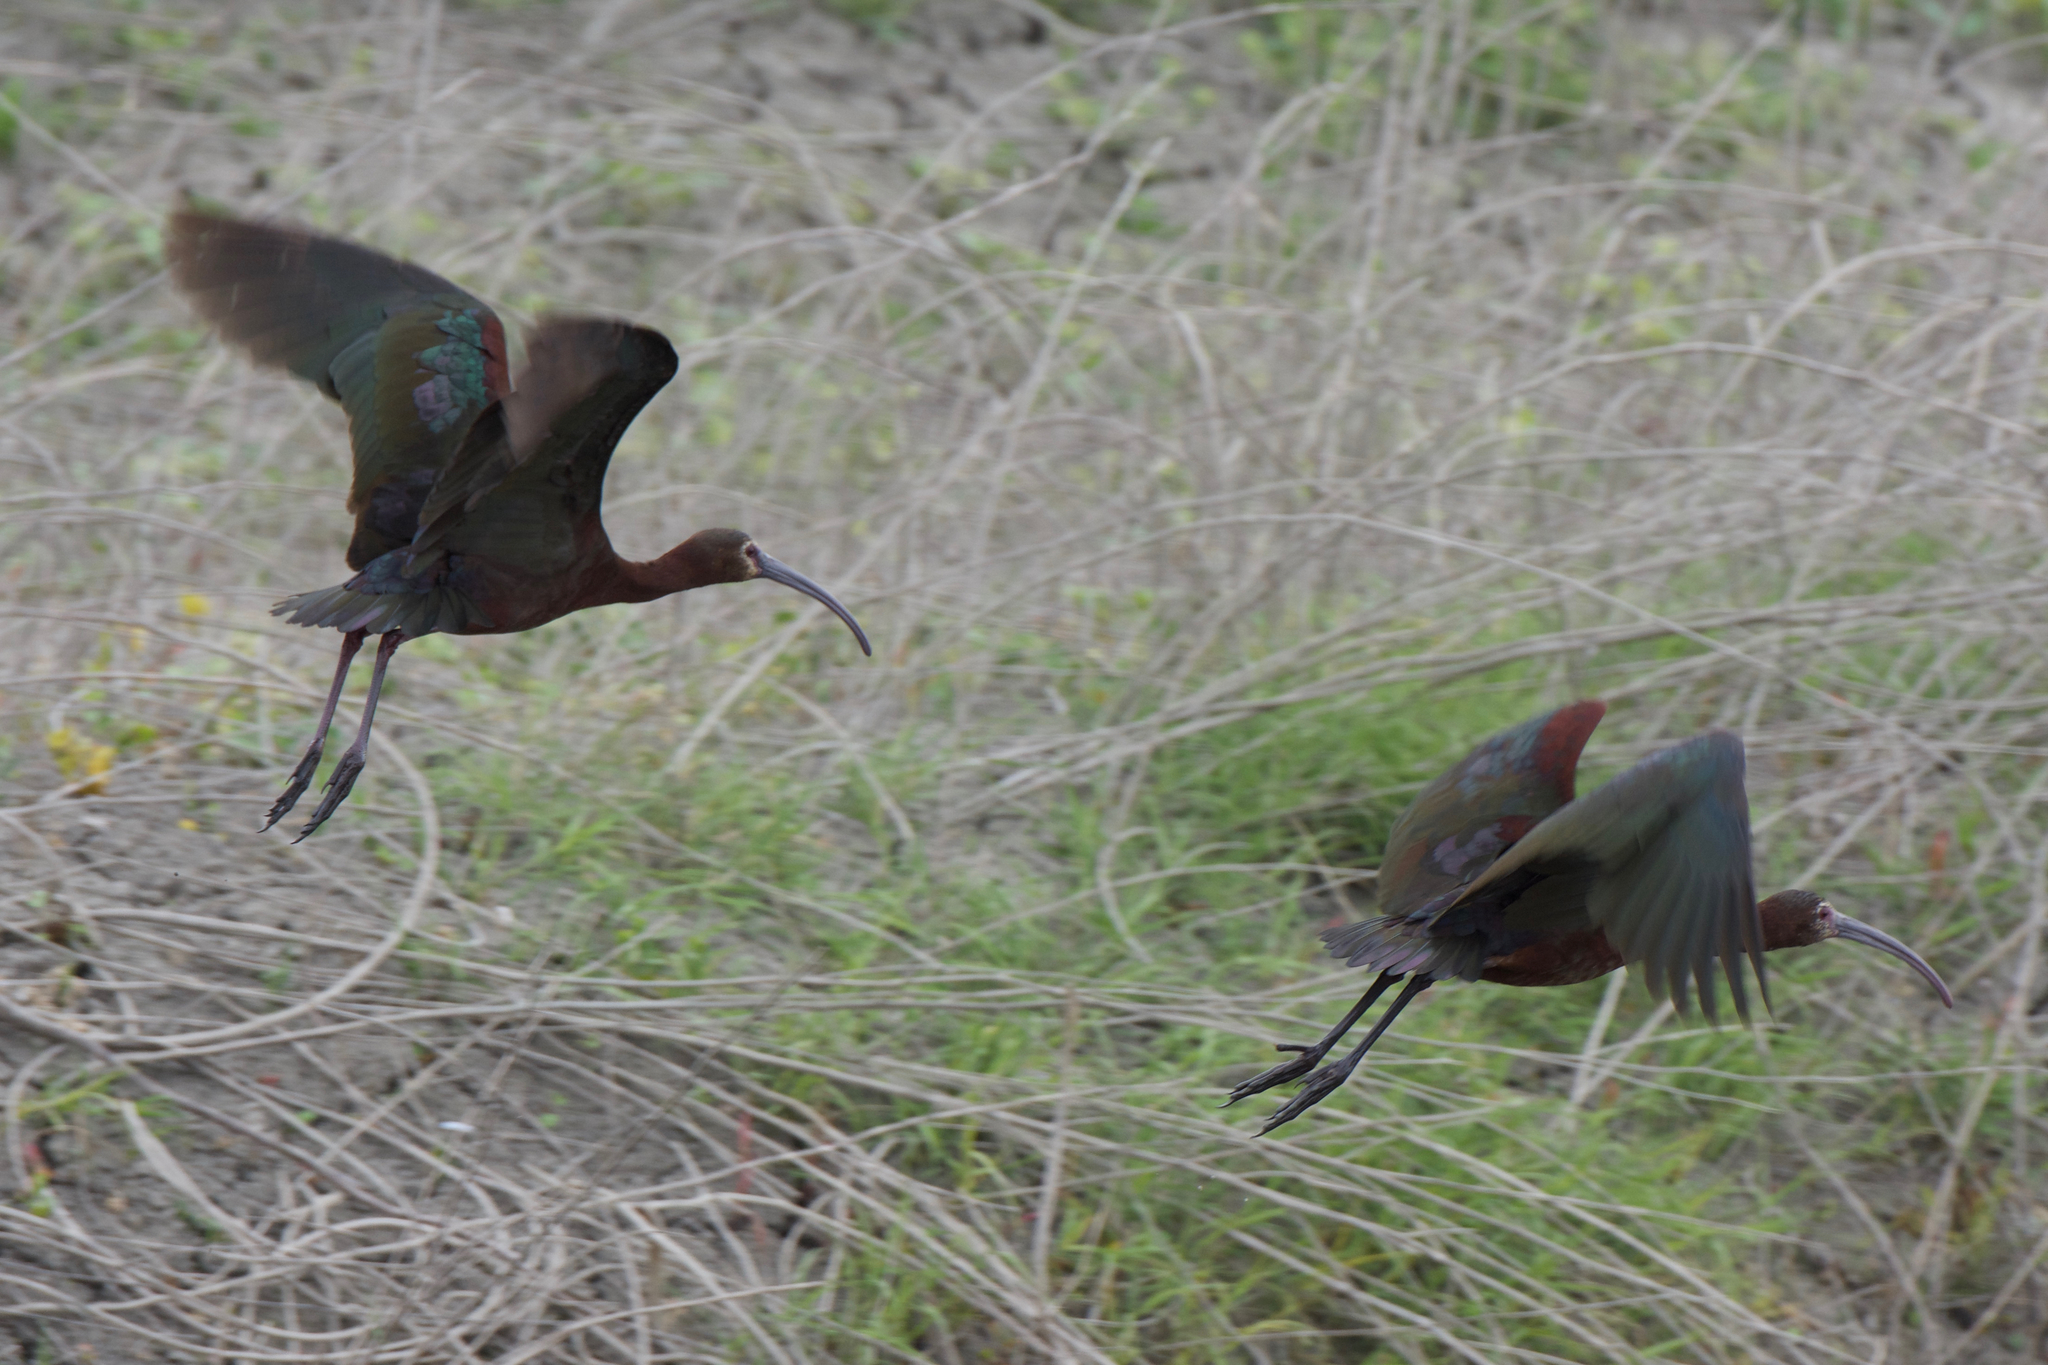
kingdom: Animalia
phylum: Chordata
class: Aves
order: Pelecaniformes
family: Threskiornithidae
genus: Plegadis
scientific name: Plegadis chihi
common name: White-faced ibis
